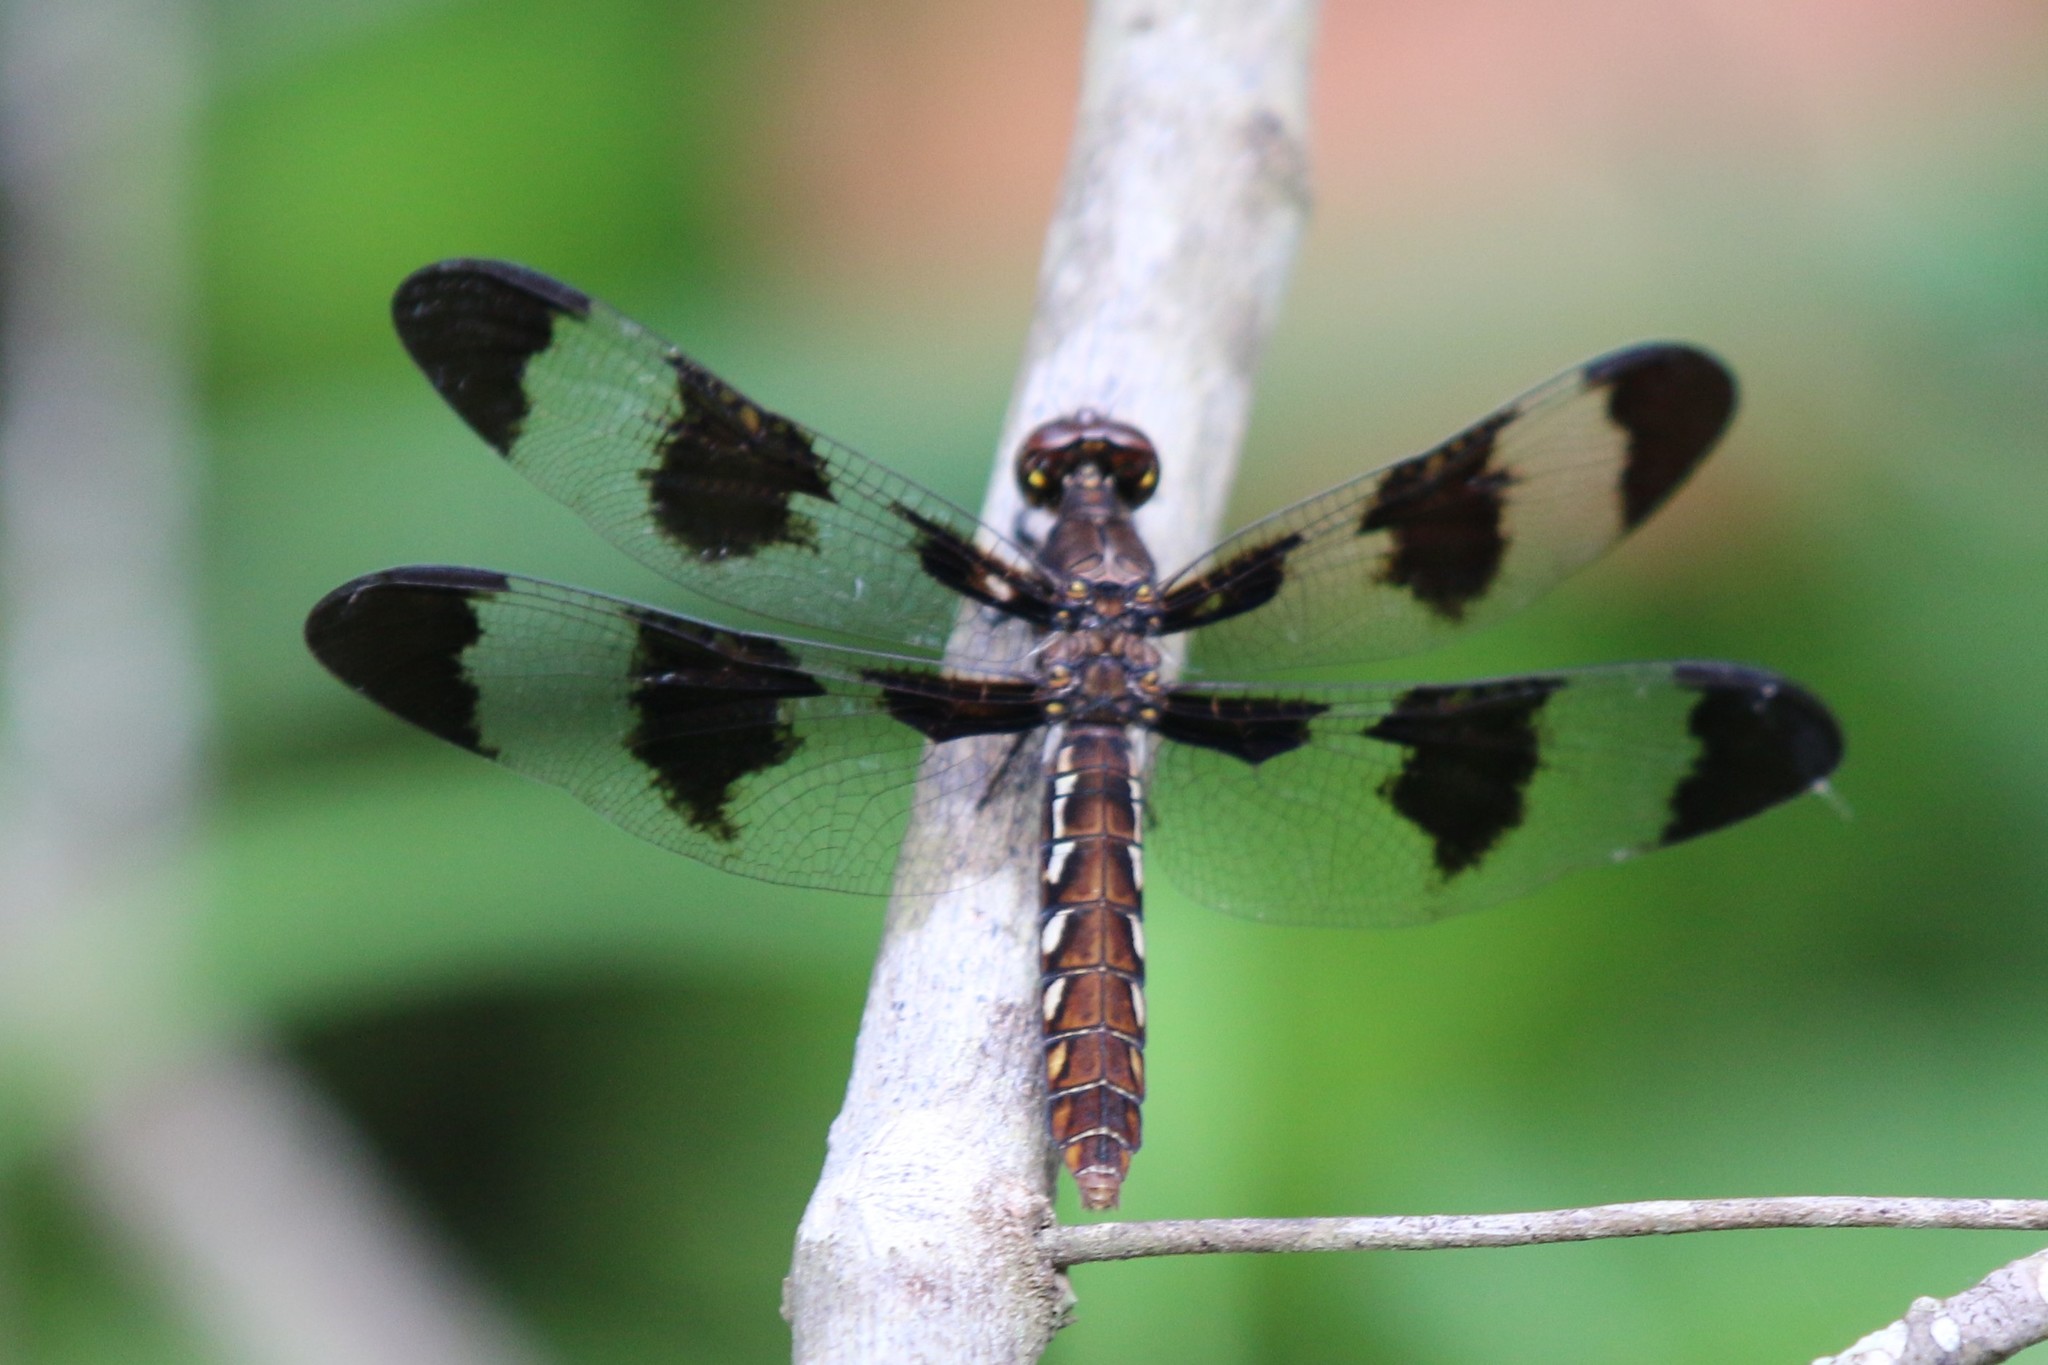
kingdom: Animalia
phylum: Arthropoda
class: Insecta
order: Odonata
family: Libellulidae
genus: Plathemis
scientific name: Plathemis lydia
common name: Common whitetail
